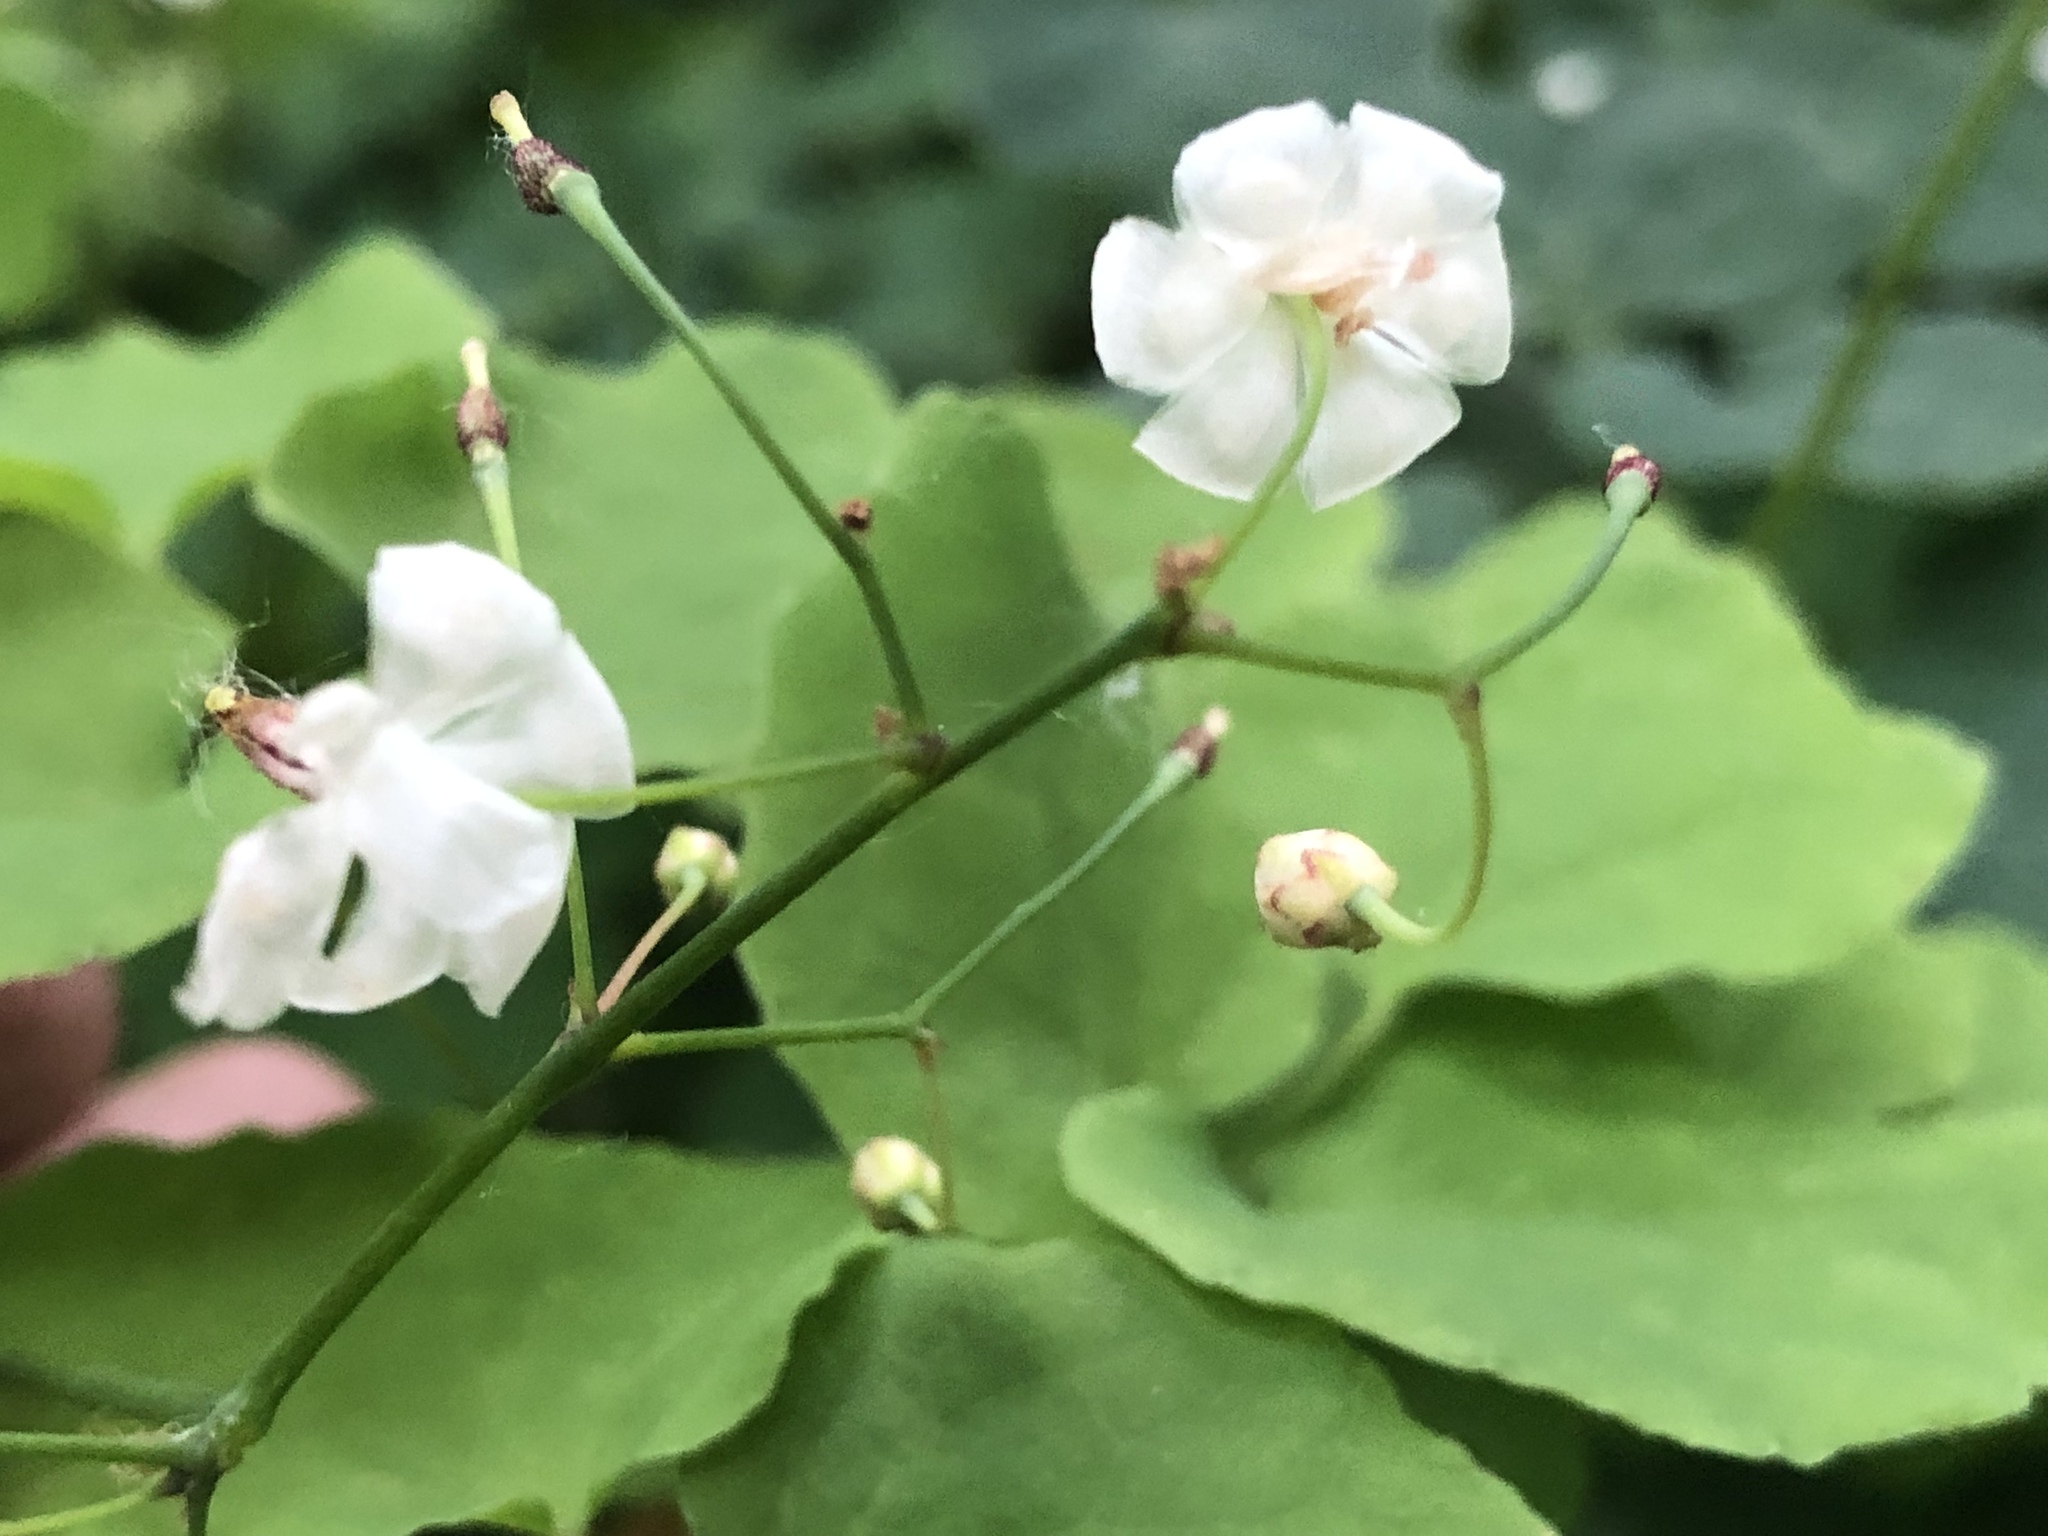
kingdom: Plantae
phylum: Tracheophyta
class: Magnoliopsida
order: Ranunculales
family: Berberidaceae
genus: Vancouveria
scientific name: Vancouveria hexandra
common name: Northern inside-out-flower
